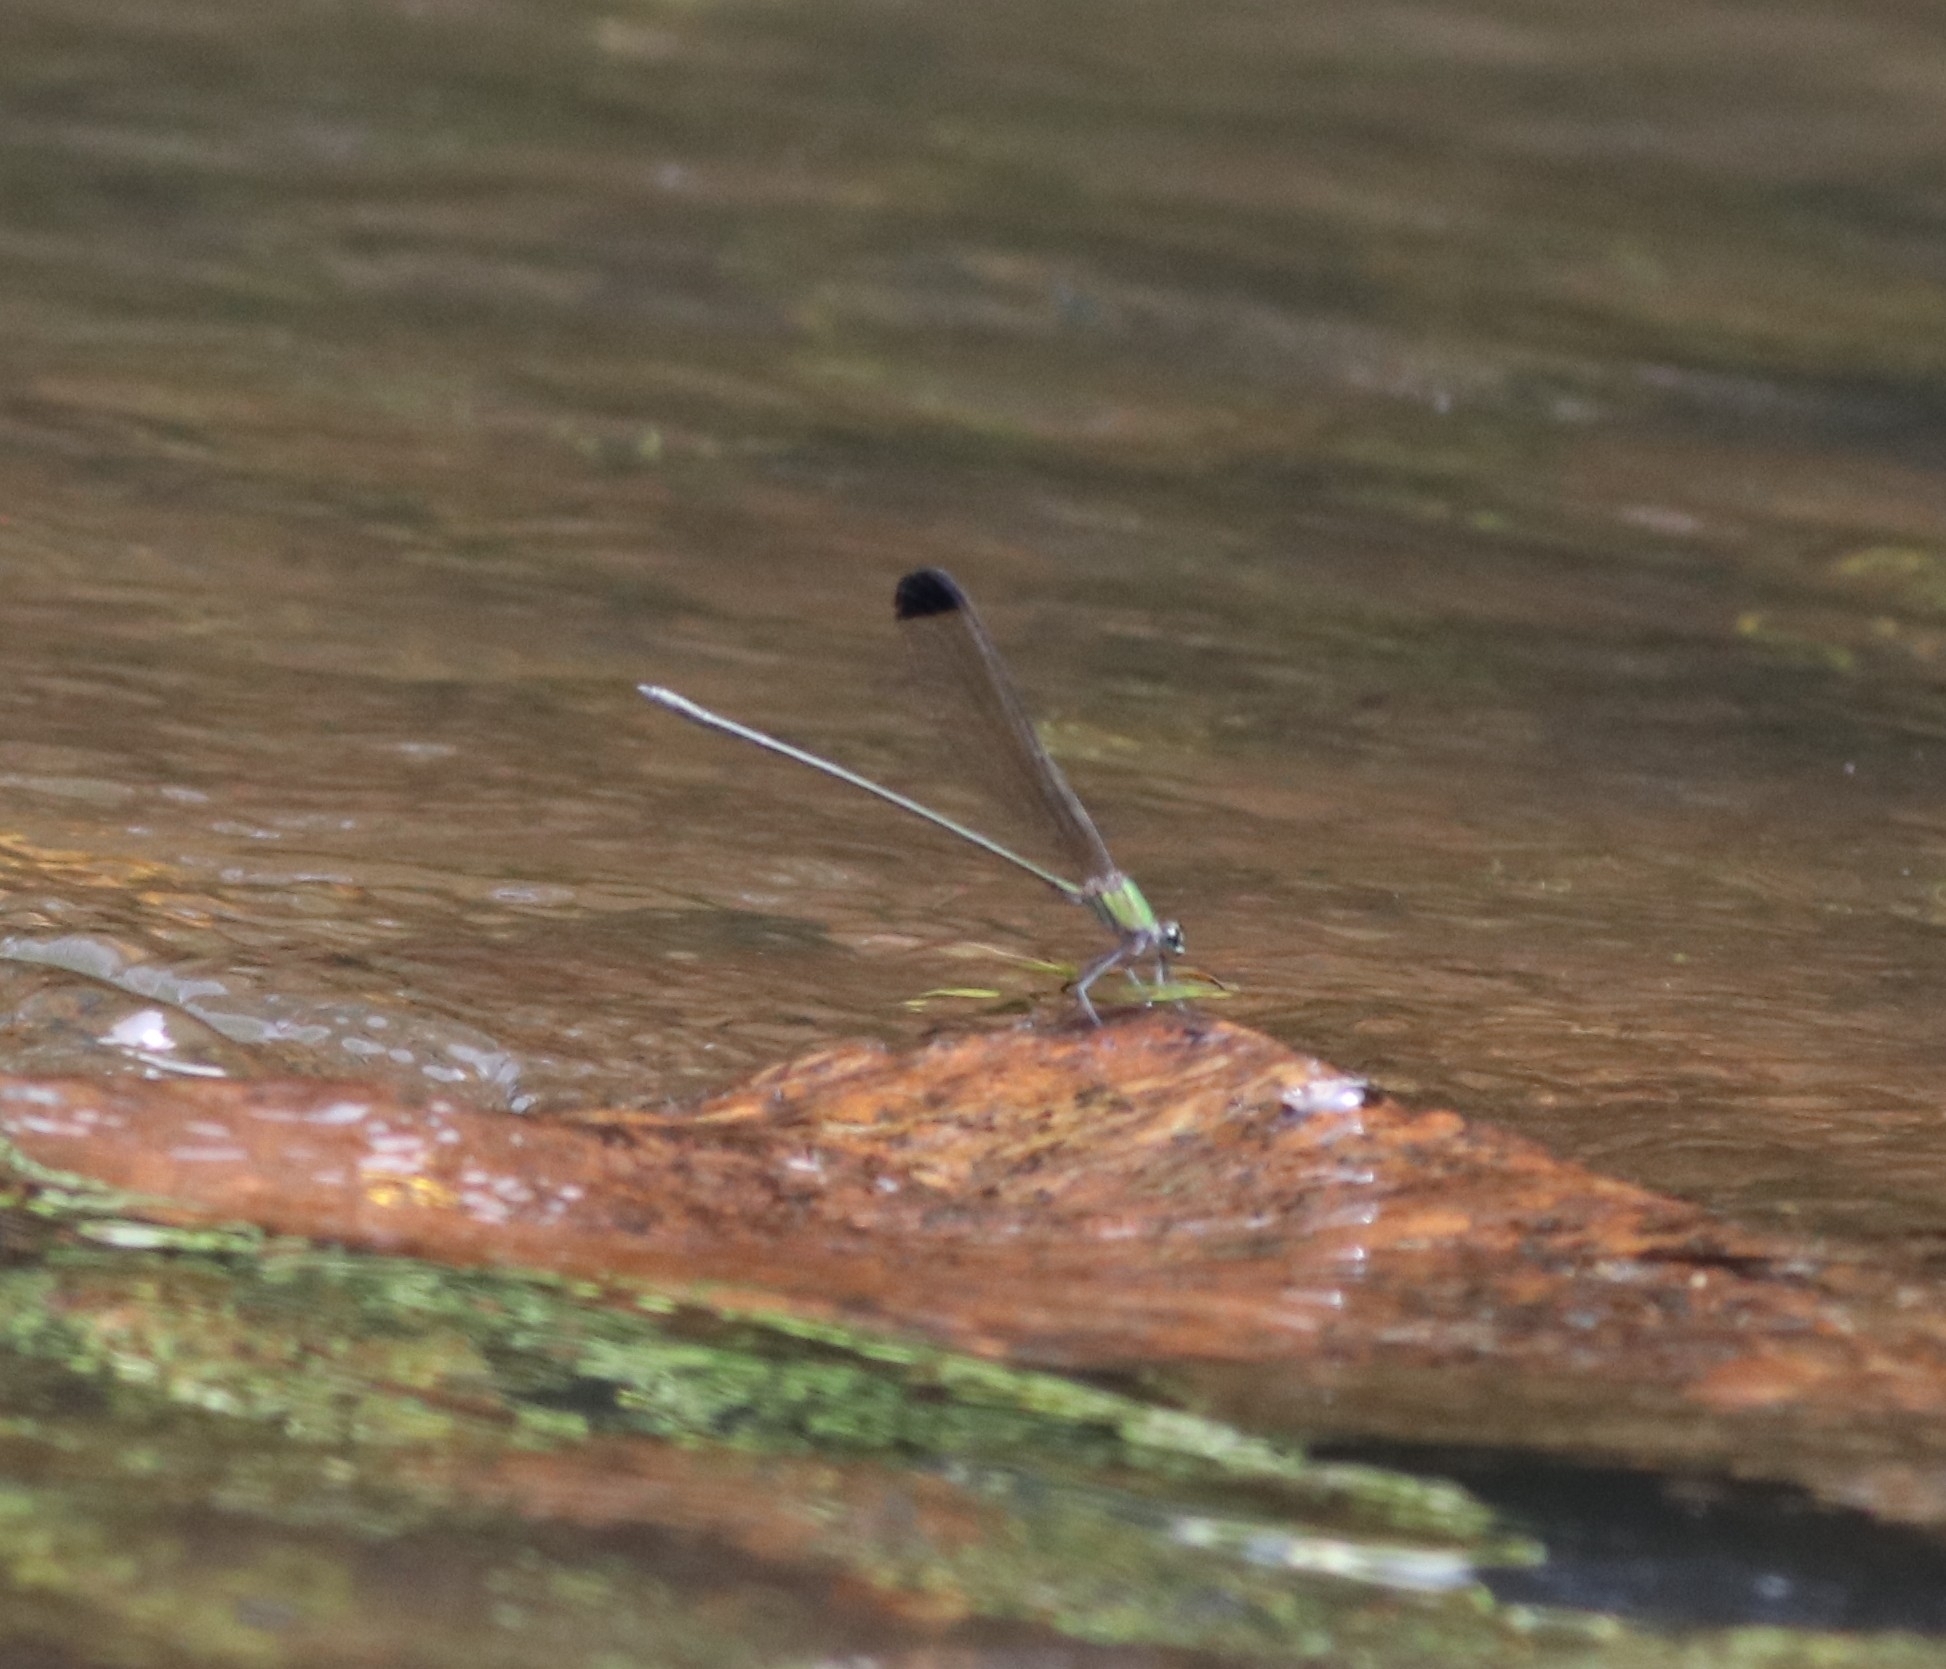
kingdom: Animalia
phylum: Arthropoda
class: Insecta
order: Odonata
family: Calopterygidae
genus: Vestalis
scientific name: Vestalis apicalis
